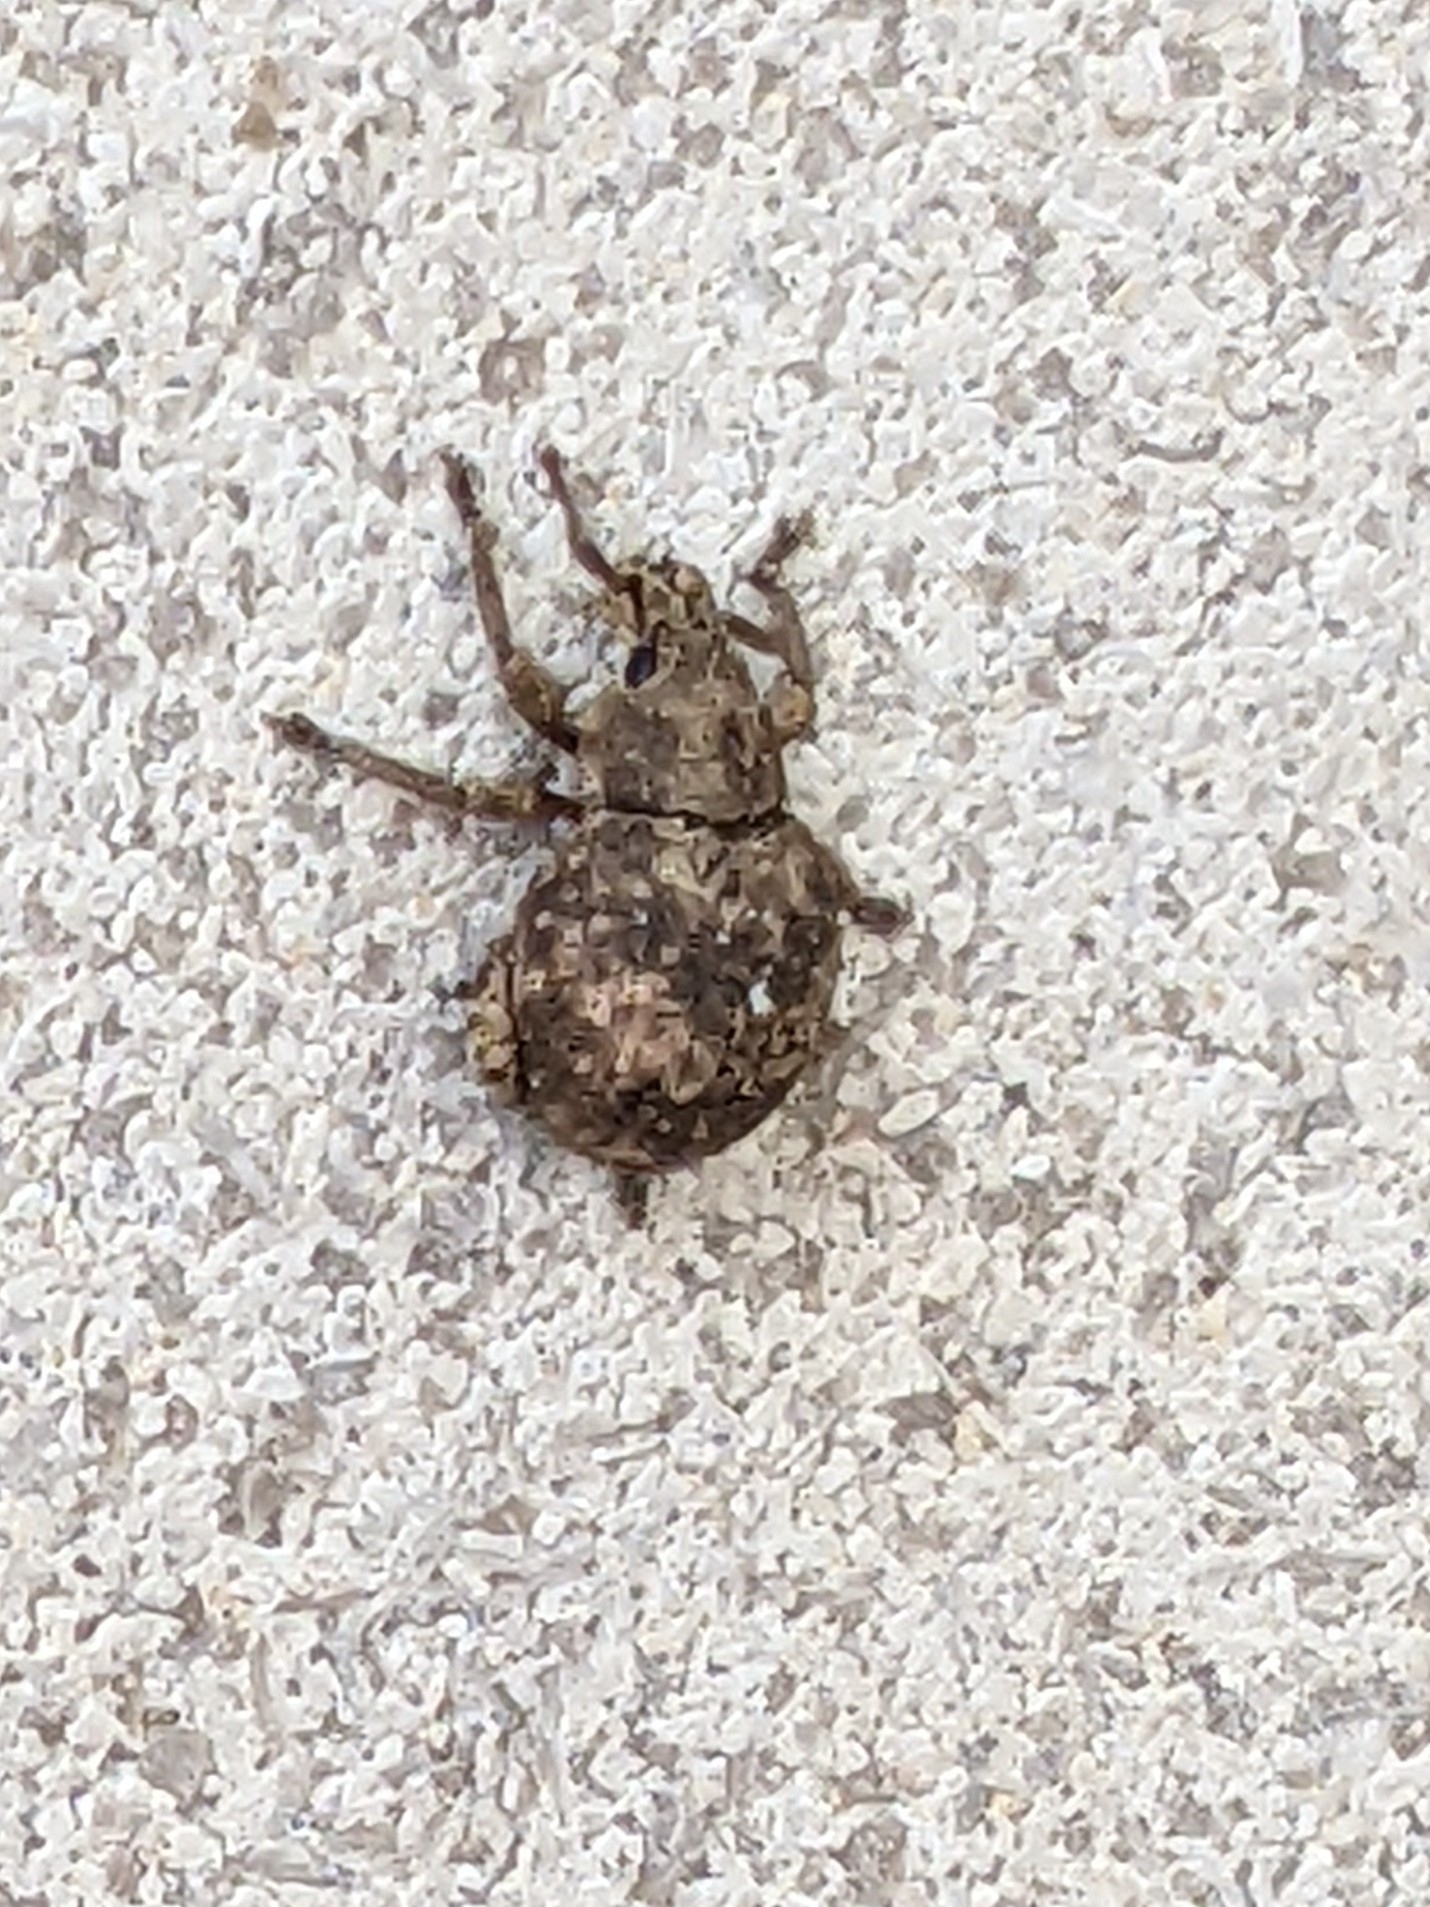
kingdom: Animalia
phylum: Arthropoda
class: Insecta
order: Coleoptera
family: Curculionidae
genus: Pseudocneorhinus
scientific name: Pseudocneorhinus bifasciatus
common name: Two-banded japanese weevil
